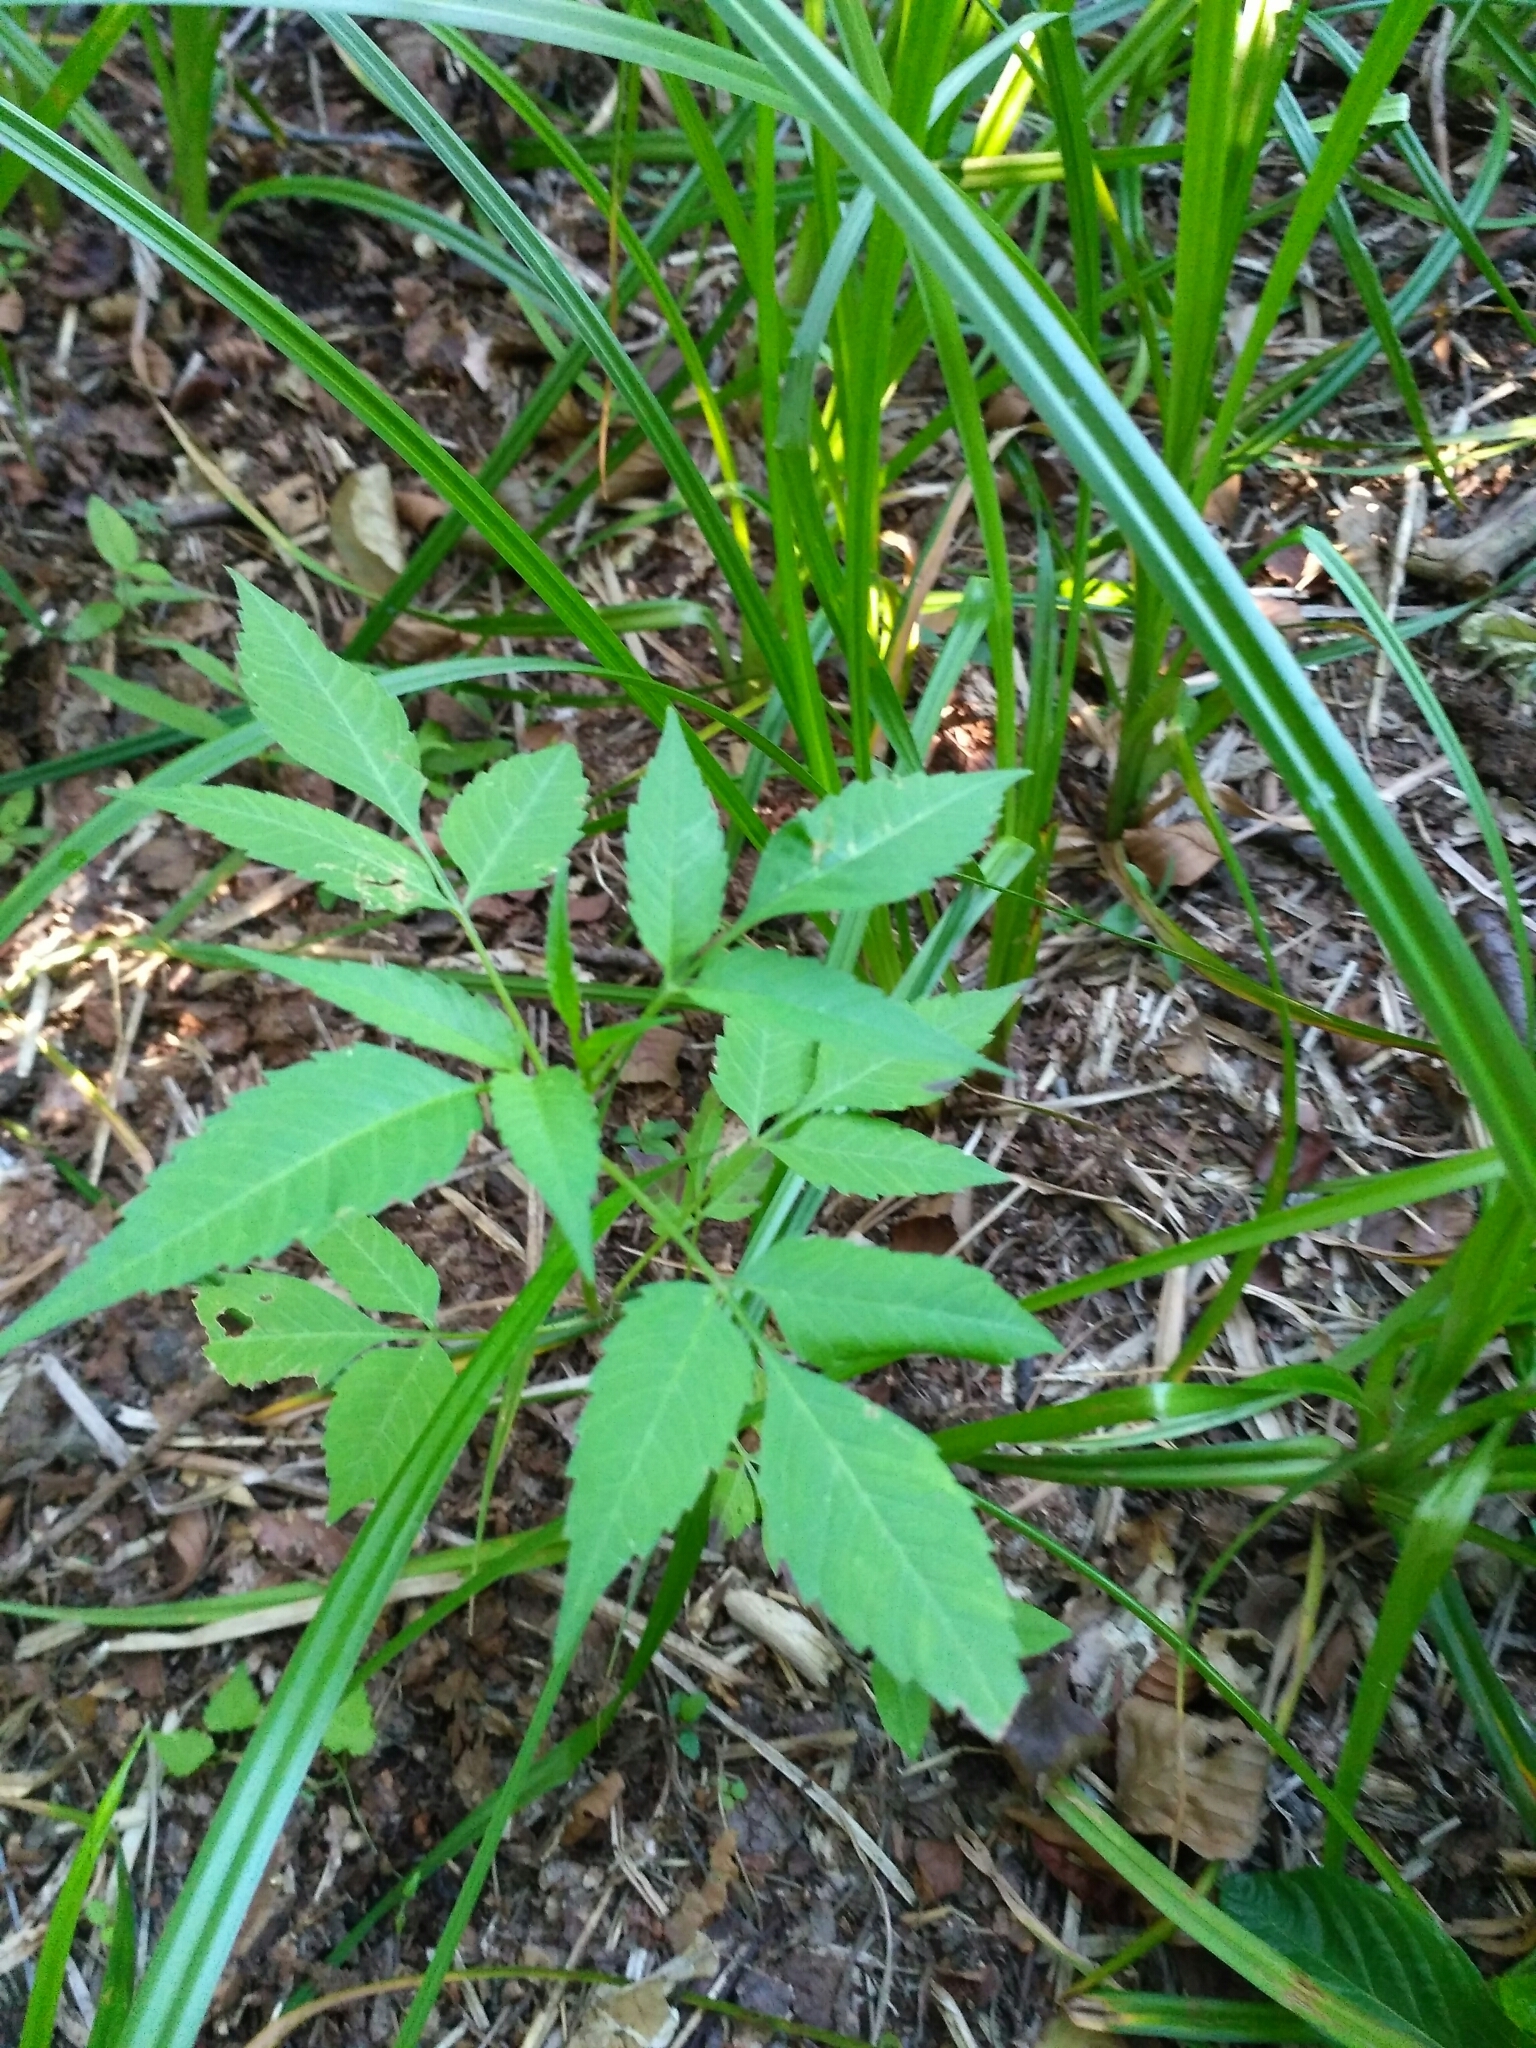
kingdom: Plantae
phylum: Tracheophyta
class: Magnoliopsida
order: Asterales
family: Asteraceae
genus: Bidens
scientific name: Bidens frondosa
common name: Beggarticks
